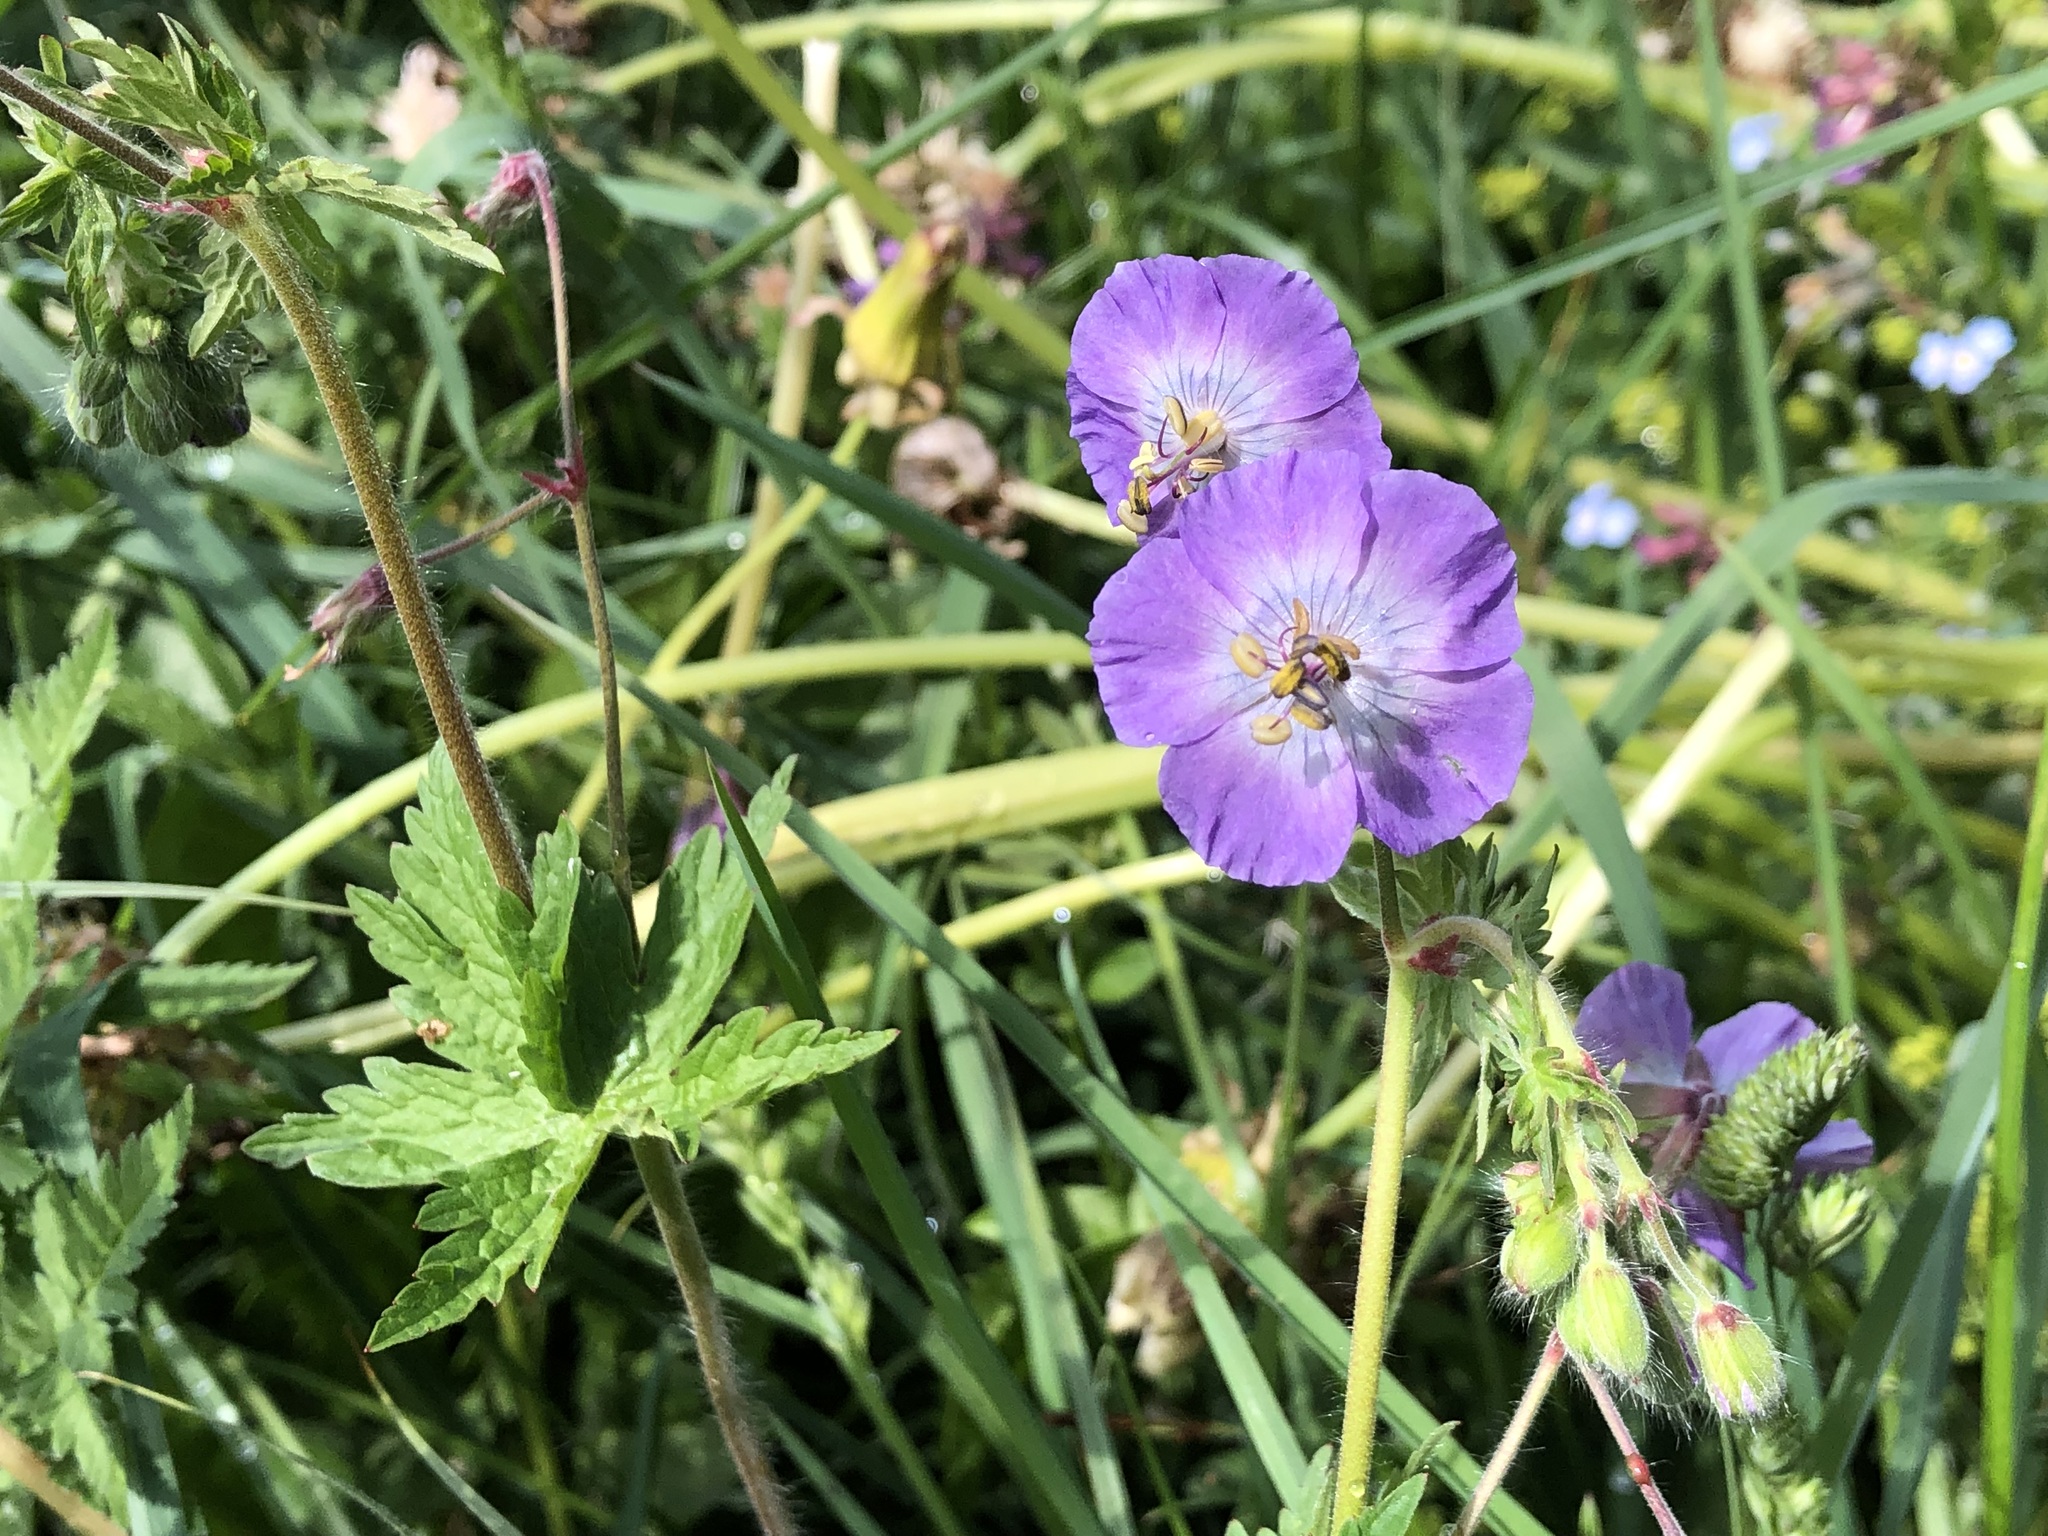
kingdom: Plantae
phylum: Tracheophyta
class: Magnoliopsida
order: Geraniales
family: Geraniaceae
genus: Geranium
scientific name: Geranium phaeum
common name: Dusky crane's-bill
